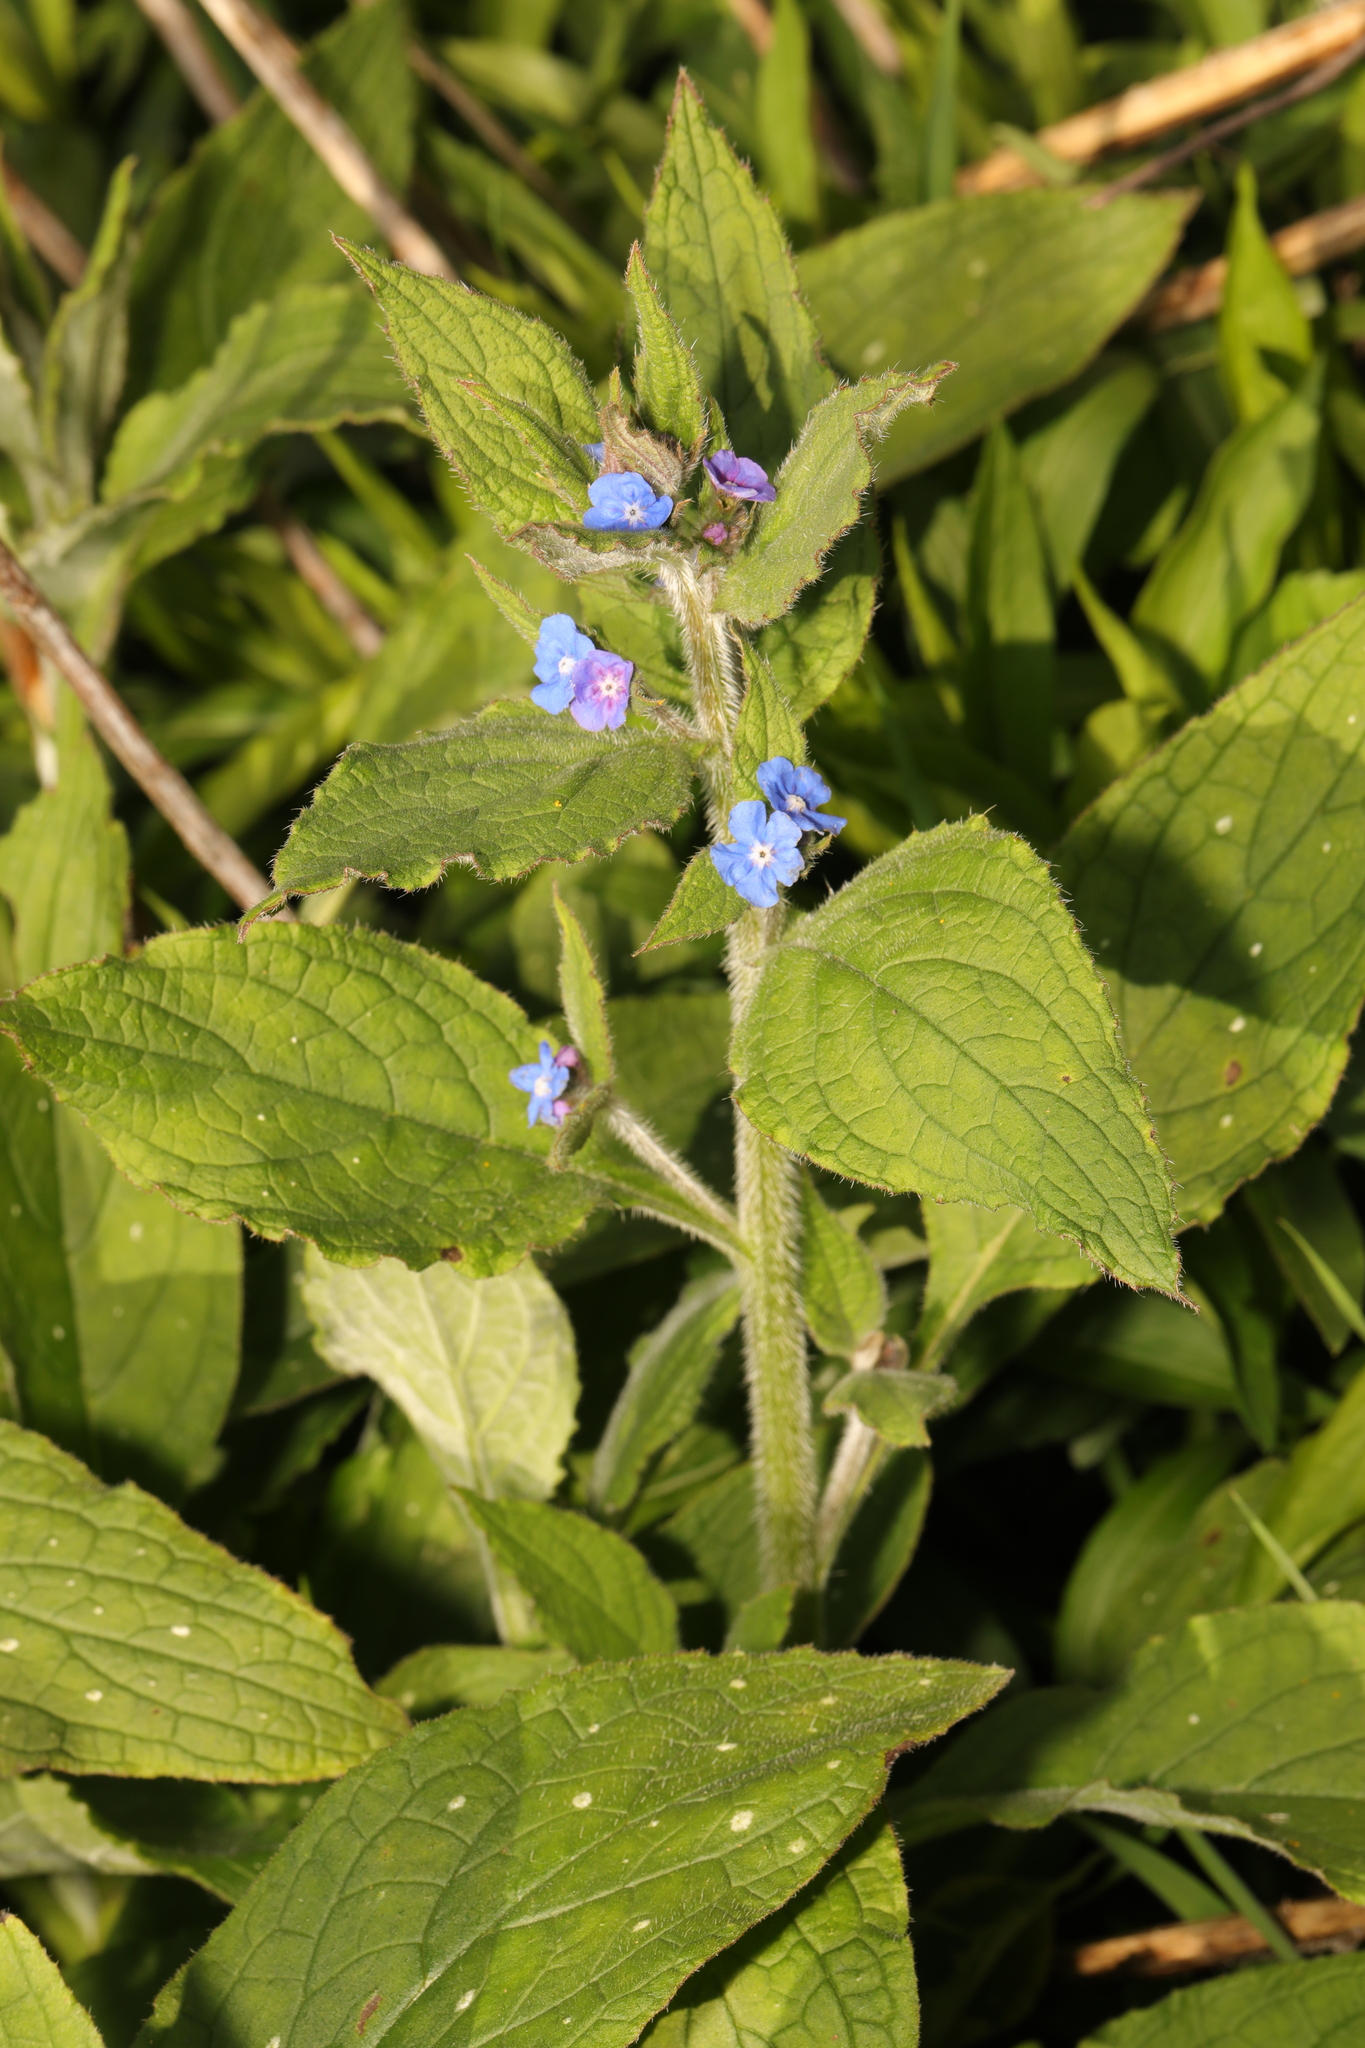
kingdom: Plantae
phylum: Tracheophyta
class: Magnoliopsida
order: Boraginales
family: Boraginaceae
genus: Pentaglottis
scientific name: Pentaglottis sempervirens
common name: Green alkanet
